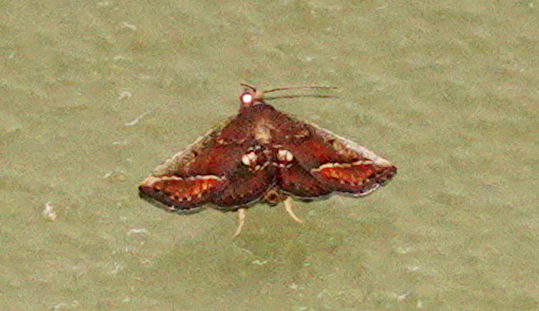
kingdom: Animalia
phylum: Arthropoda
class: Insecta
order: Lepidoptera
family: Pyralidae
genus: Zitha
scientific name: Zitha
